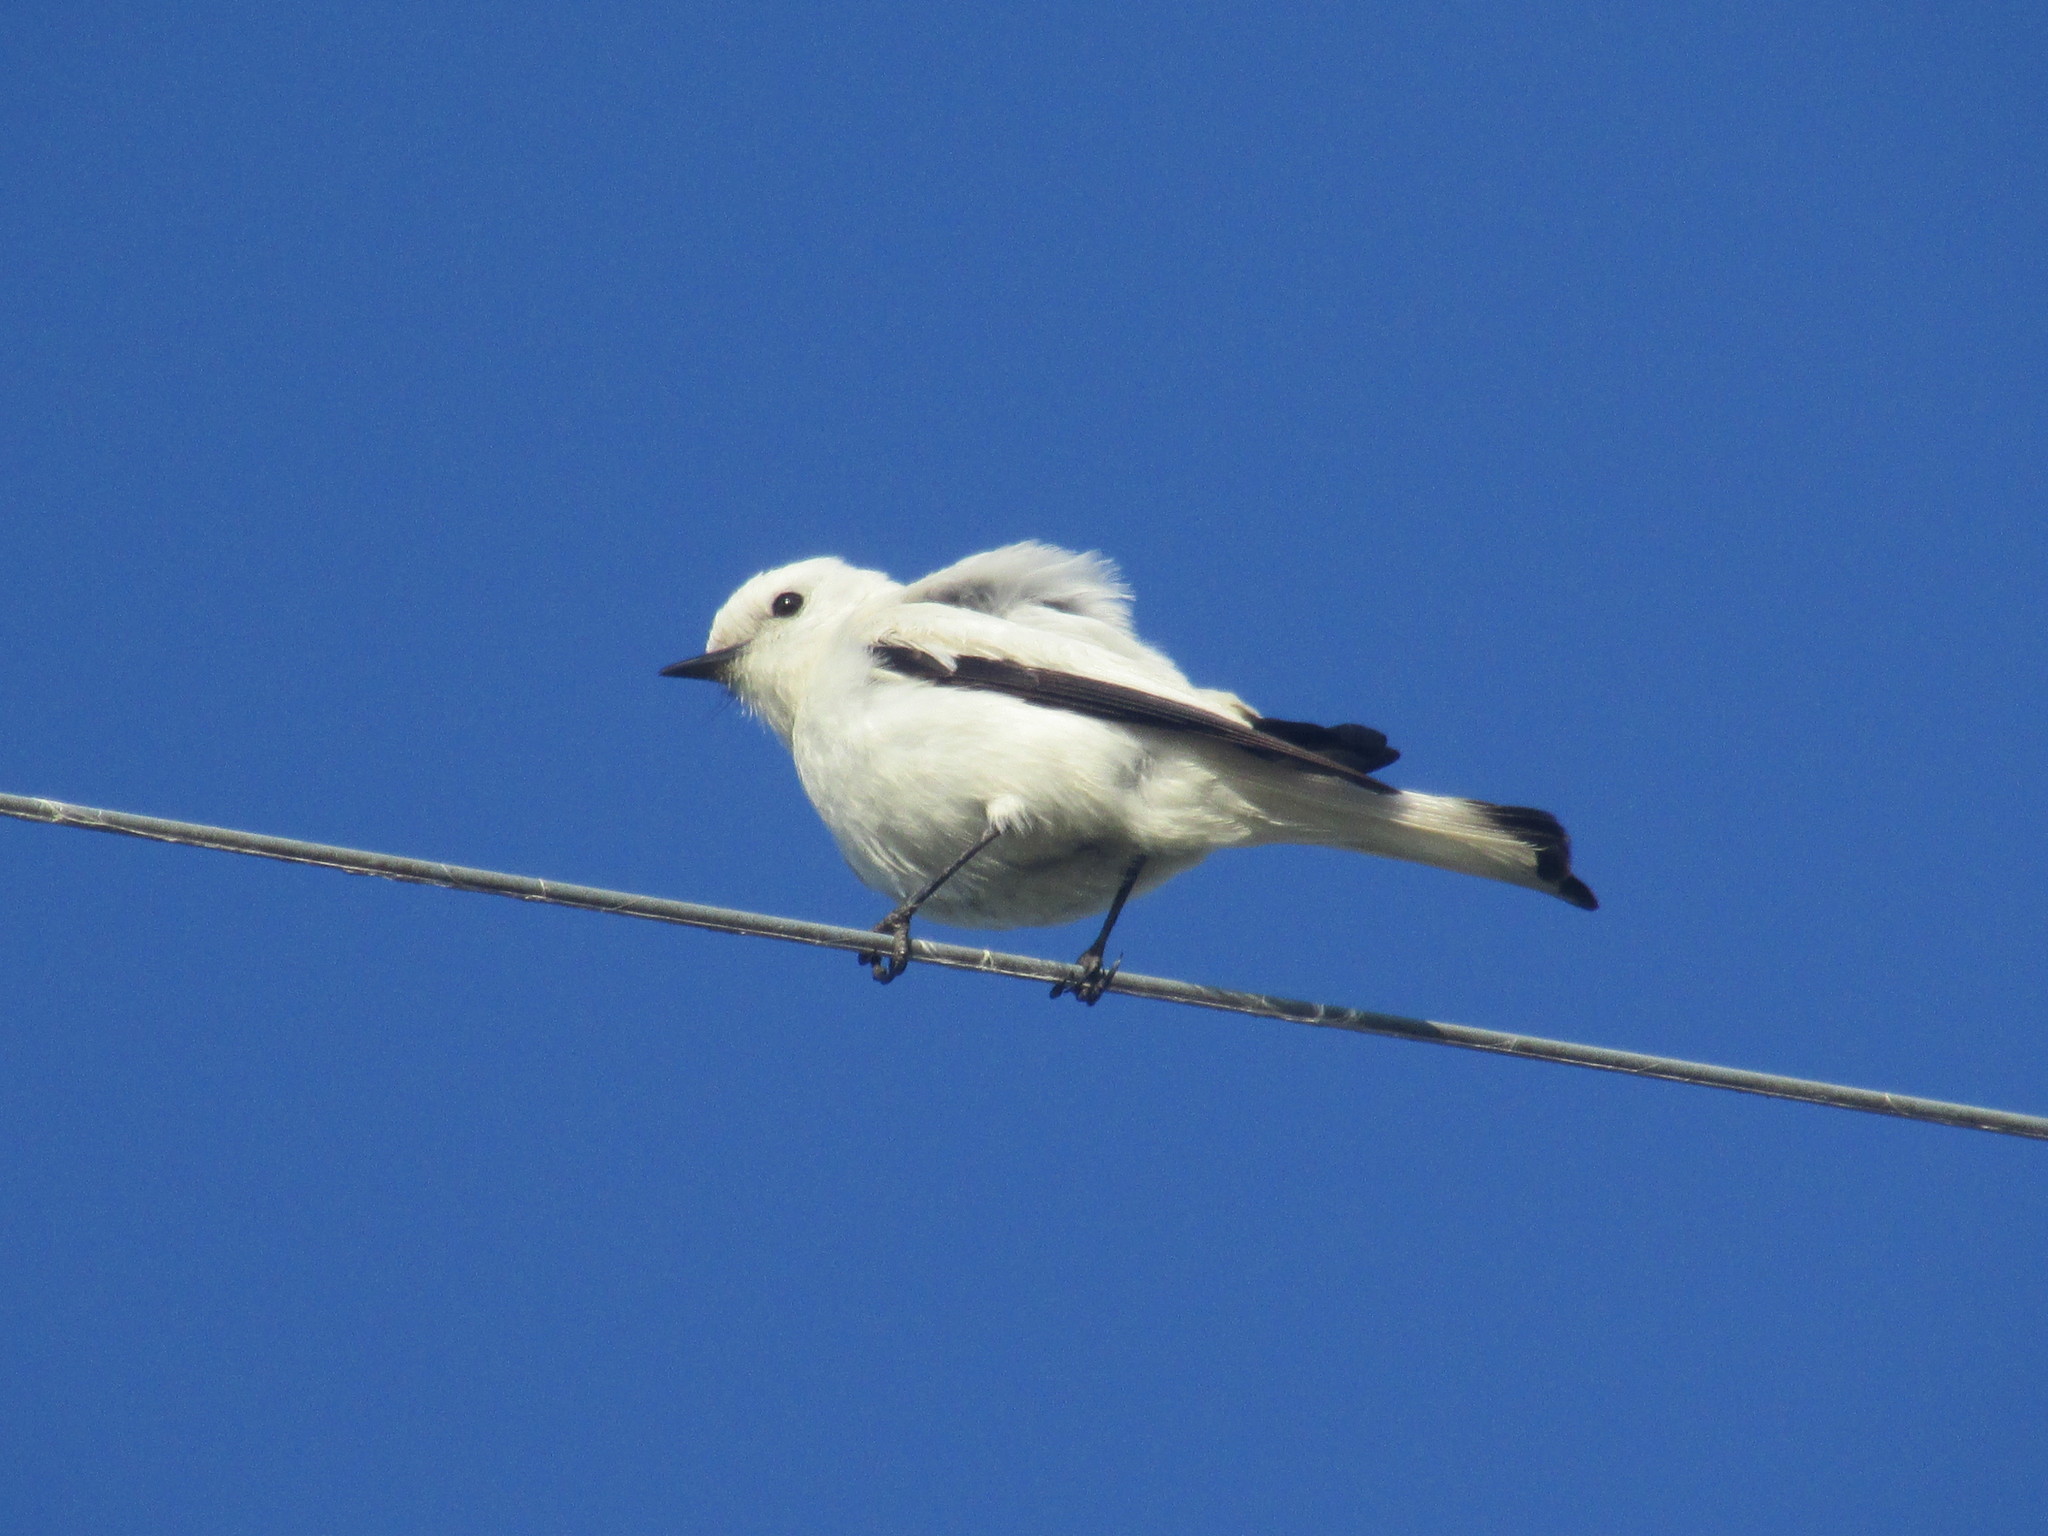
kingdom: Animalia
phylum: Chordata
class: Aves
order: Passeriformes
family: Tyrannidae
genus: Xolmis
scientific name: Xolmis irupero
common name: White monjita
